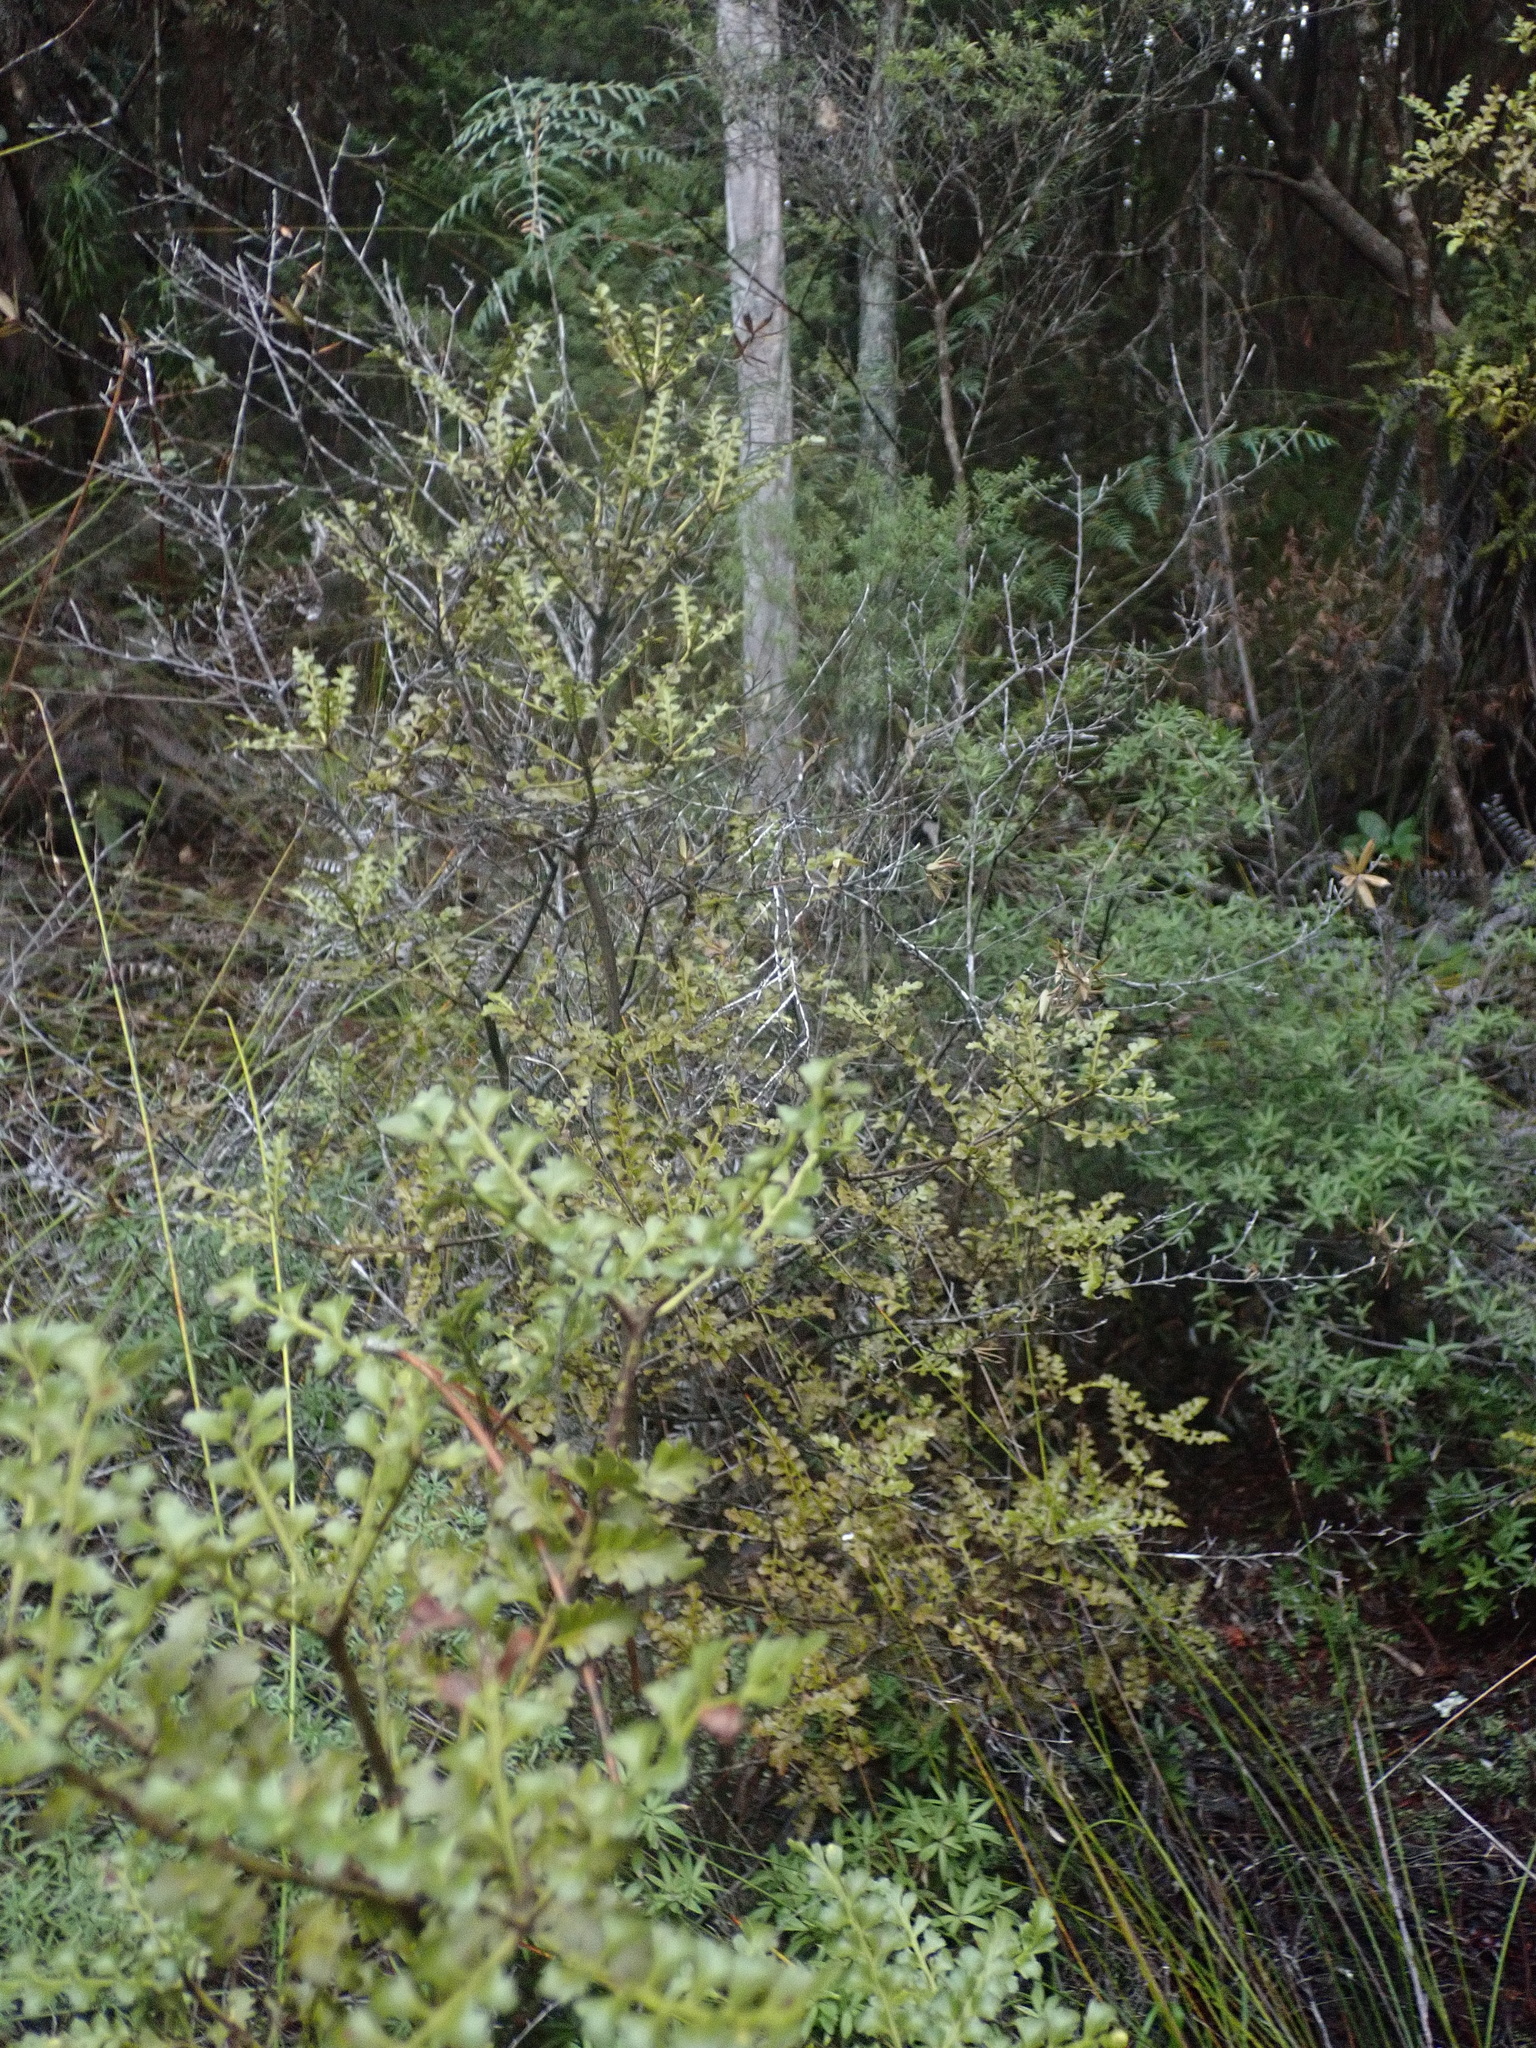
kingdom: Plantae
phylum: Tracheophyta
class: Pinopsida
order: Pinales
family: Phyllocladaceae
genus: Phyllocladus
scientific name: Phyllocladus trichomanoides
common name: Celery pine
